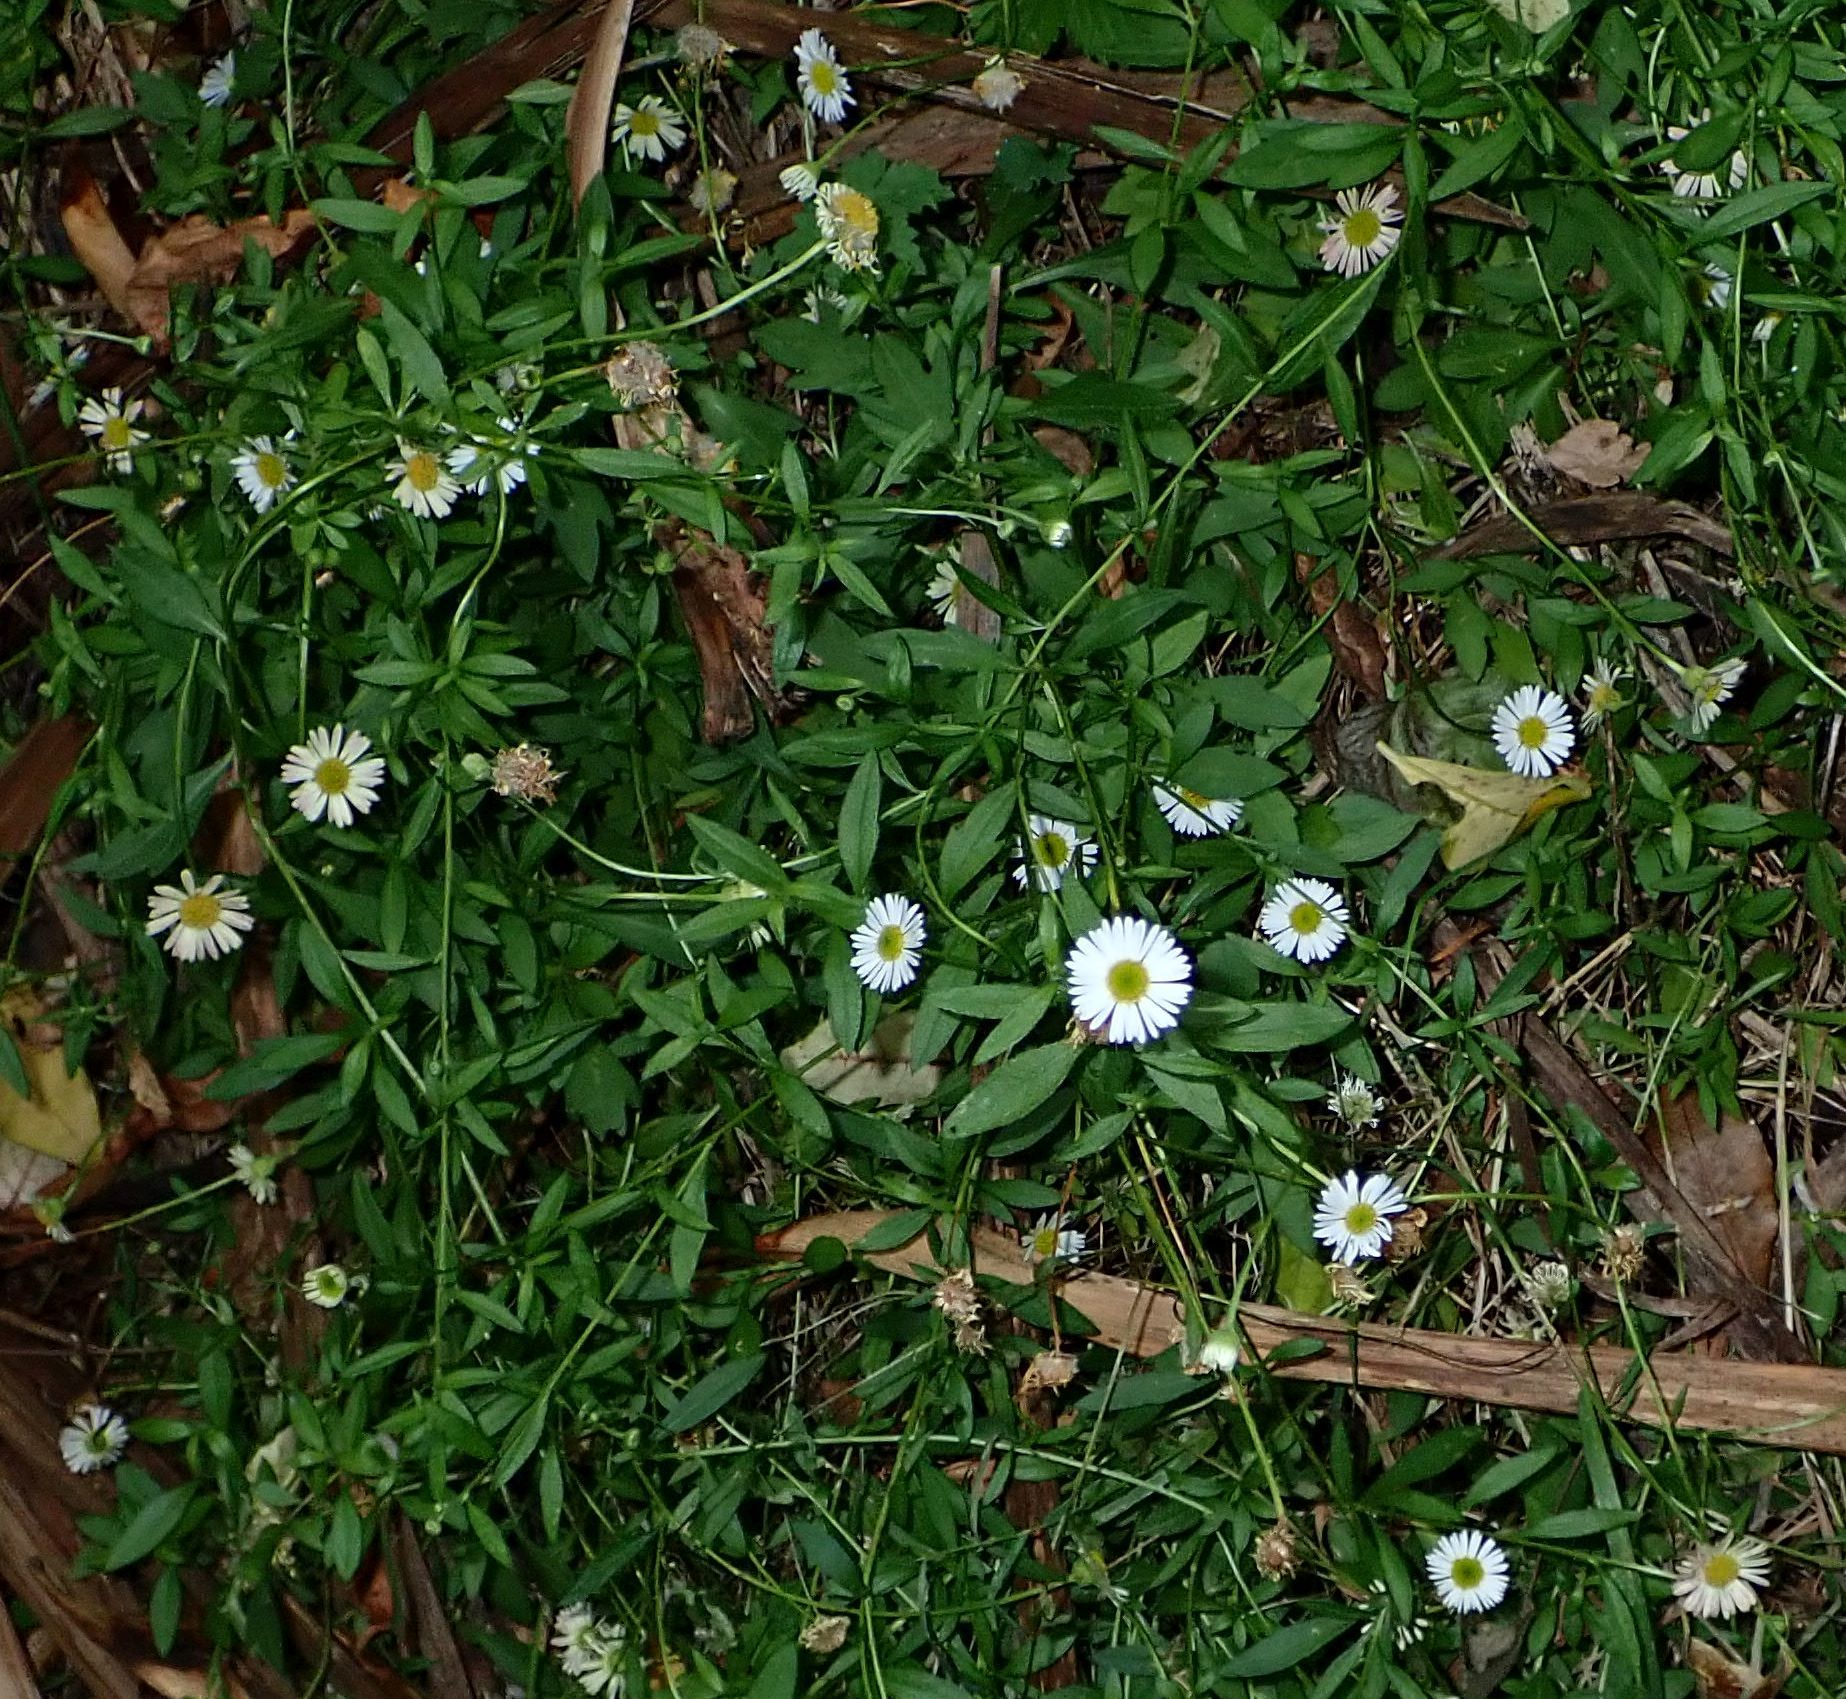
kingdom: Plantae
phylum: Tracheophyta
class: Magnoliopsida
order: Asterales
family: Asteraceae
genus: Erigeron
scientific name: Erigeron karvinskianus
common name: Mexican fleabane
